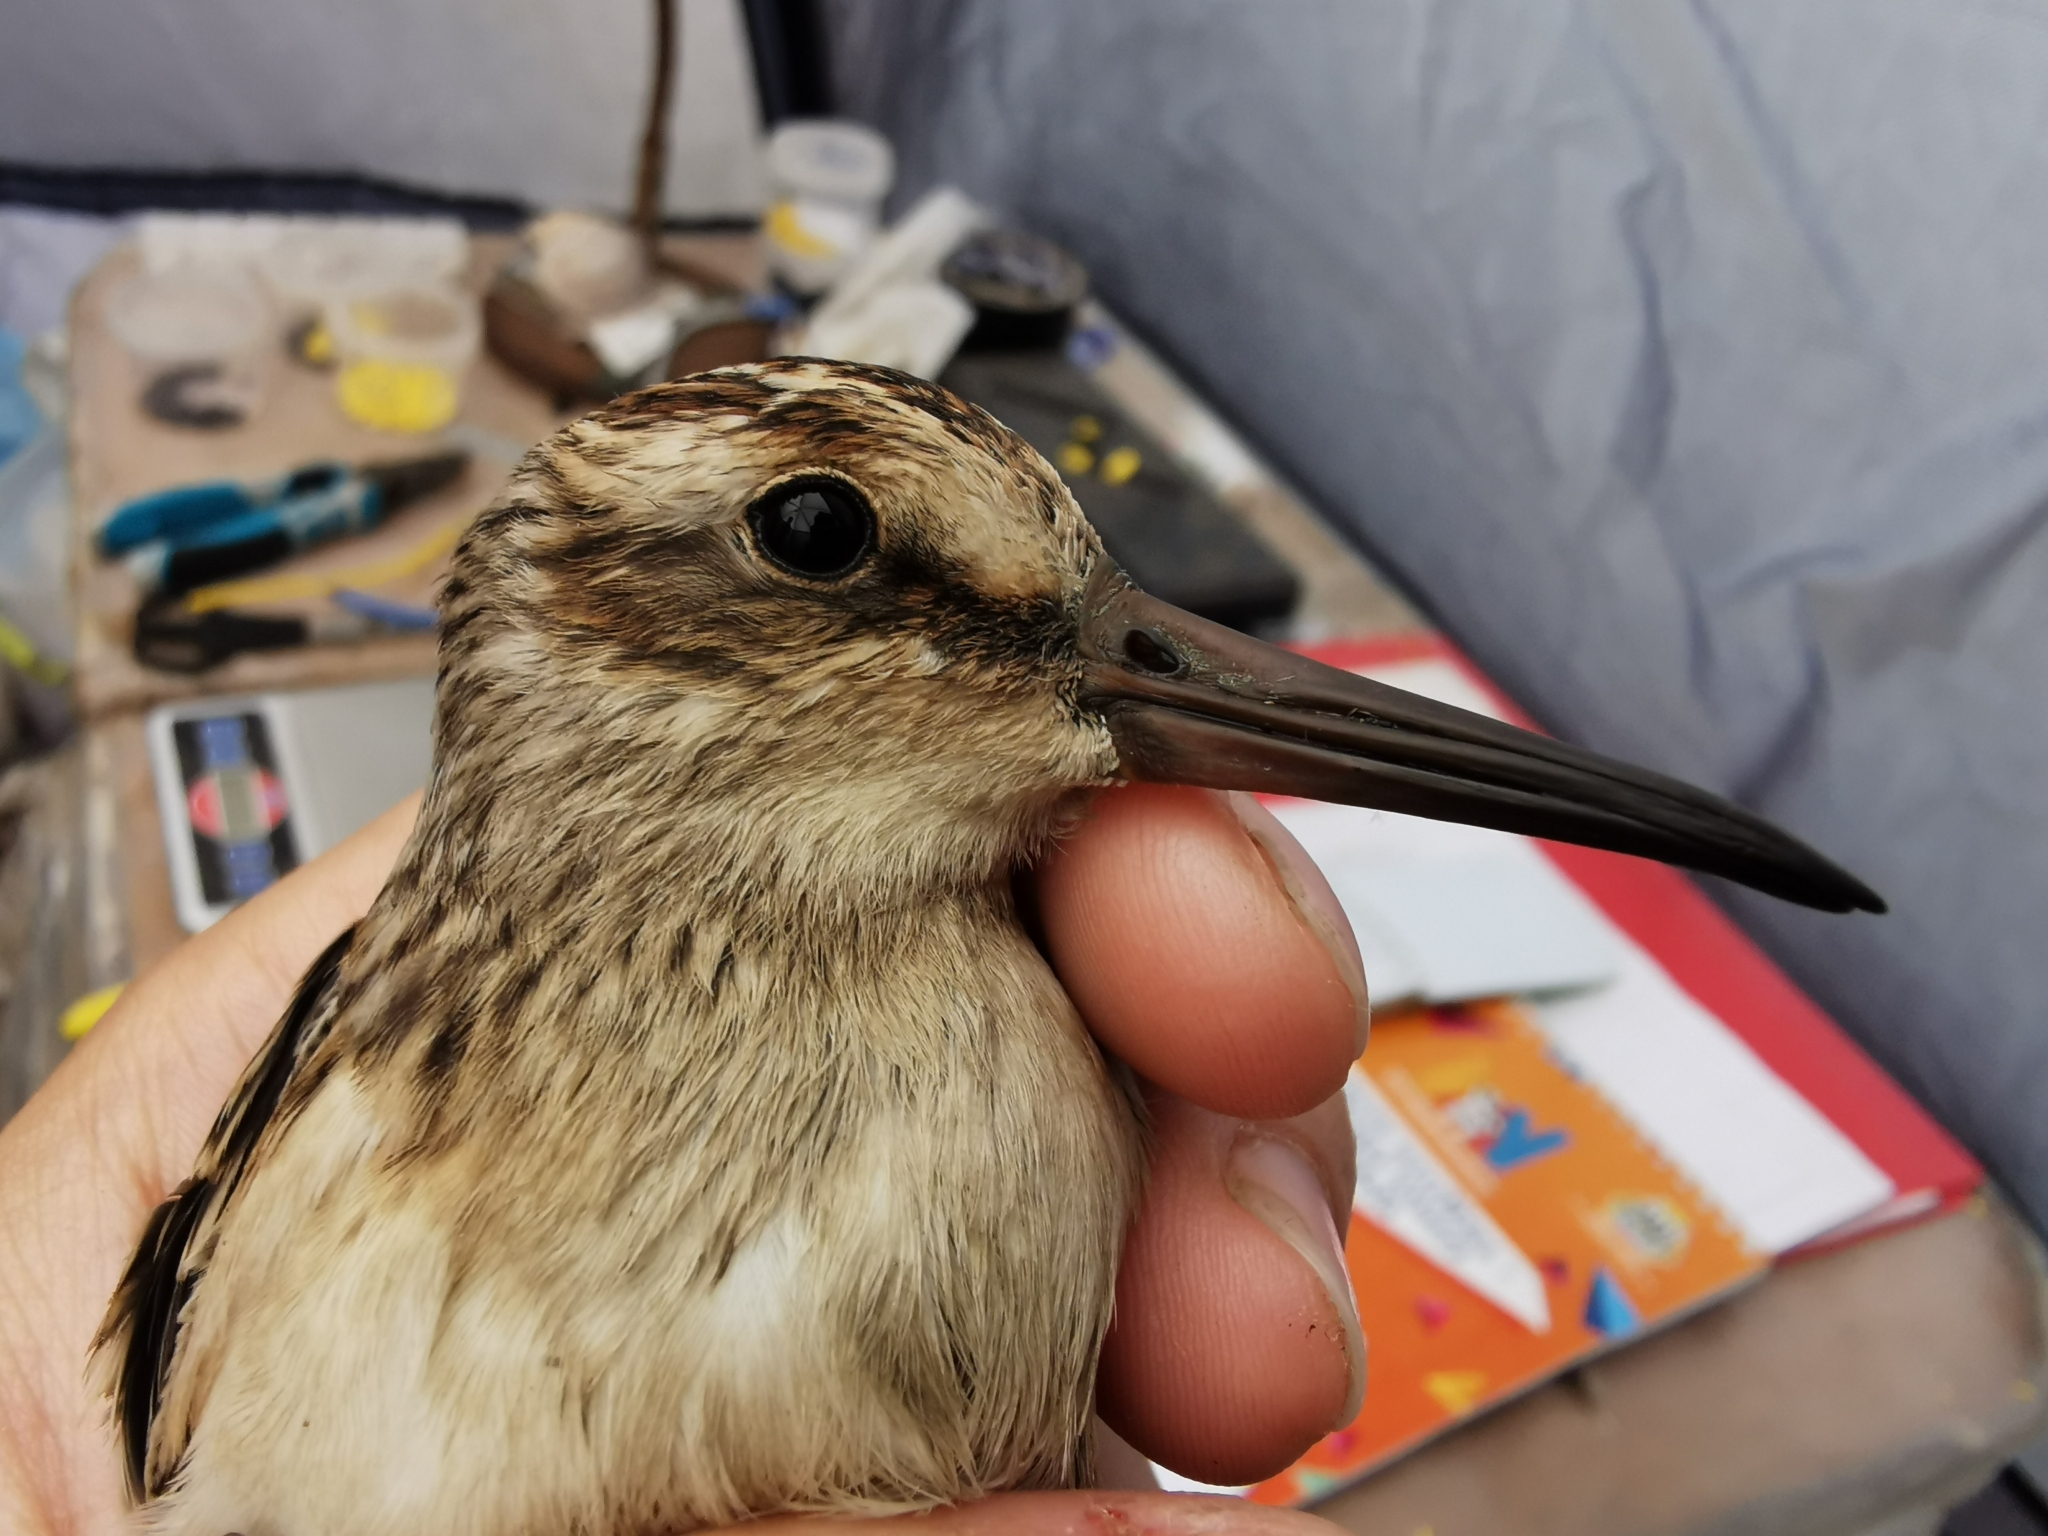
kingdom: Animalia
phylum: Chordata
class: Aves
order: Charadriiformes
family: Scolopacidae
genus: Calidris
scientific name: Calidris falcinellus
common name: Broad-billed sandpiper
